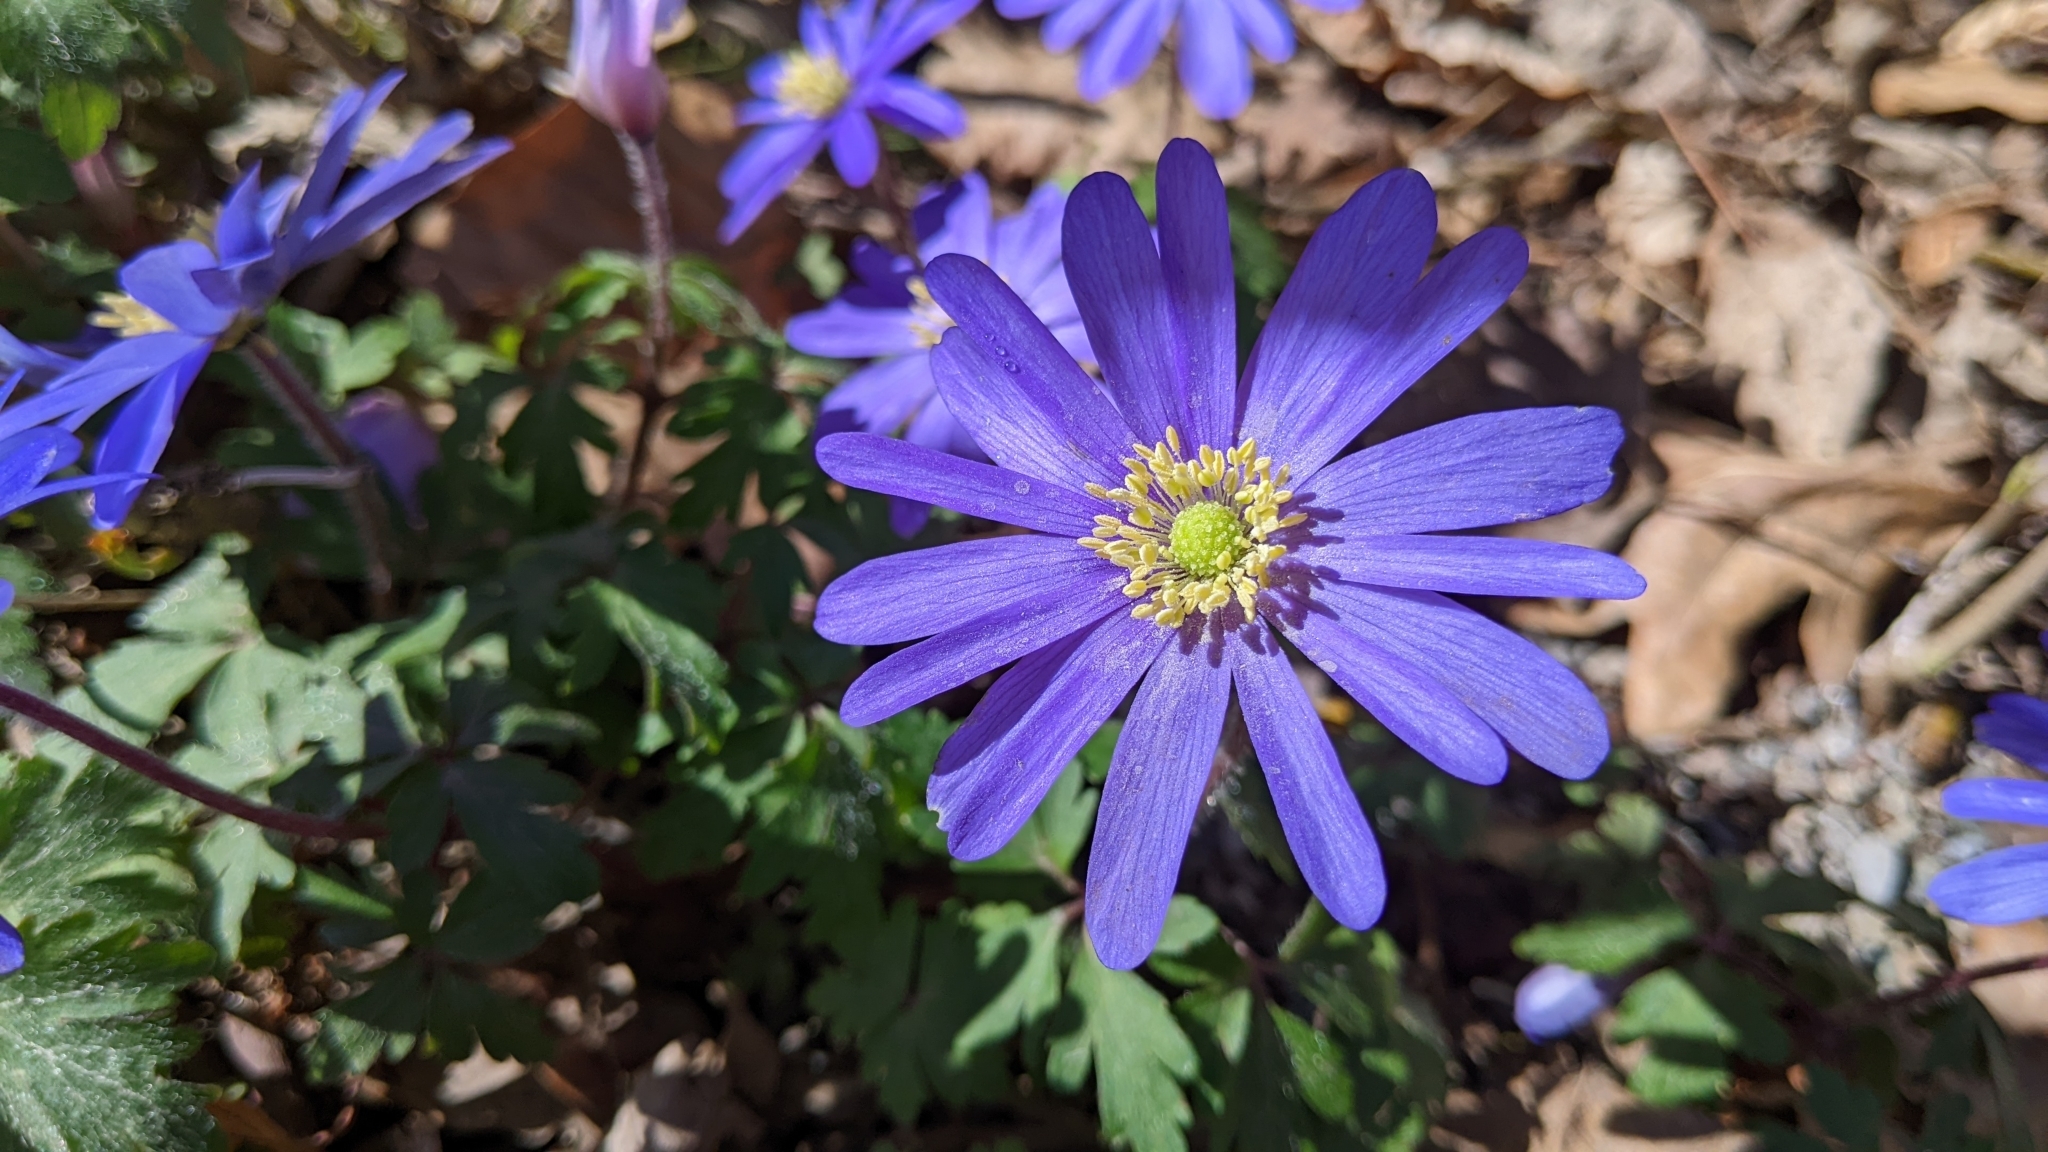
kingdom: Plantae
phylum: Tracheophyta
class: Magnoliopsida
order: Ranunculales
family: Ranunculaceae
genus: Anemone
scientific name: Anemone blanda
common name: Balkan anemone
